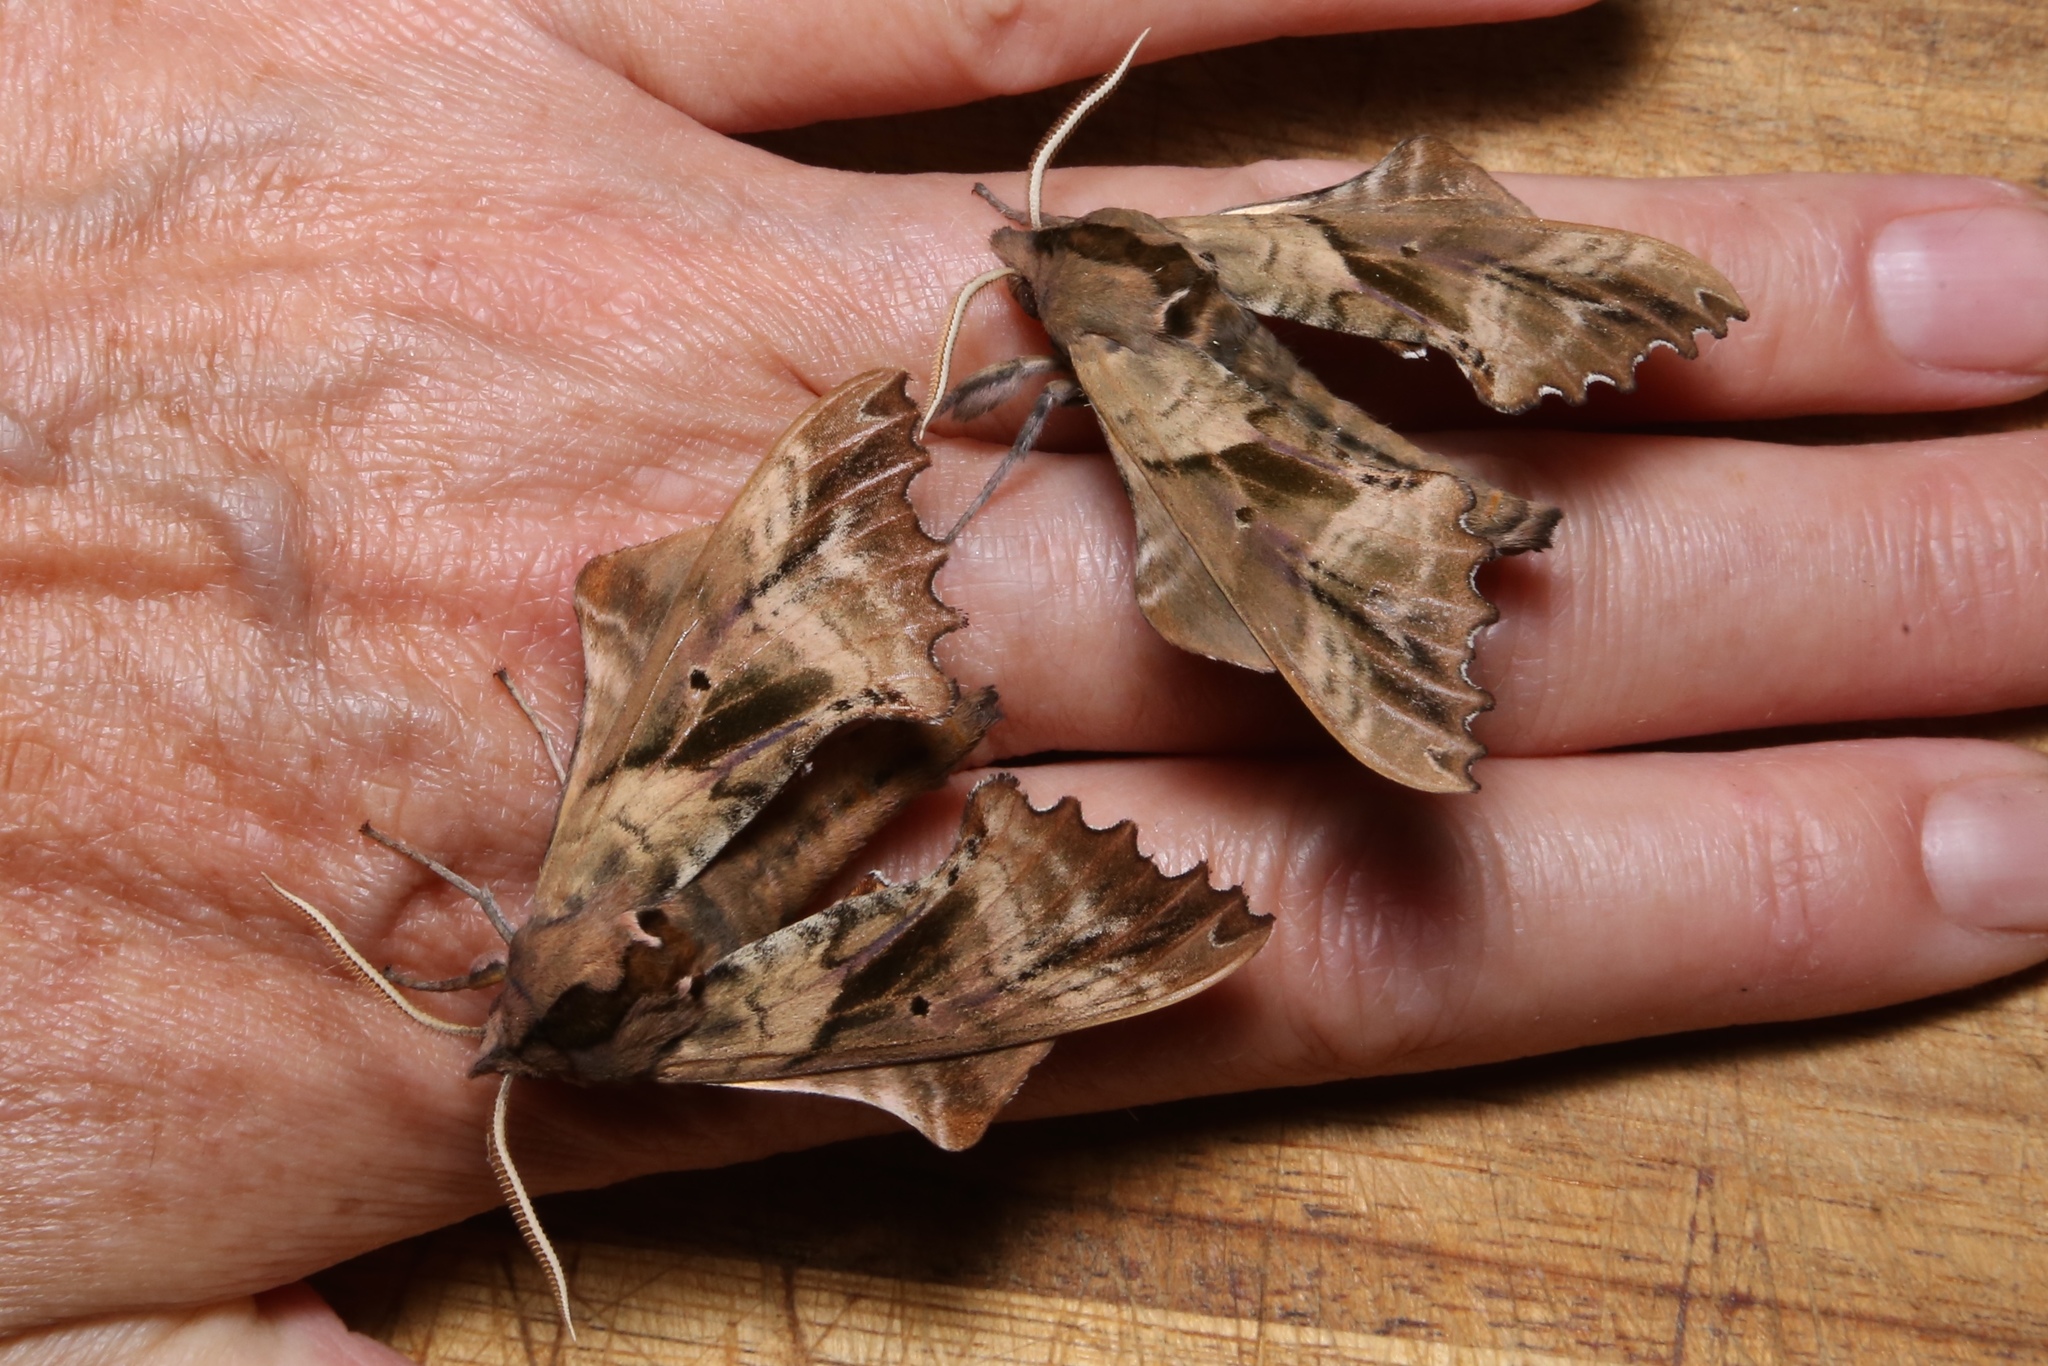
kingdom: Animalia
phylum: Arthropoda
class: Insecta
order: Lepidoptera
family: Sphingidae
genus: Paonias
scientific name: Paonias excaecata
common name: Blind-eyed sphinx
